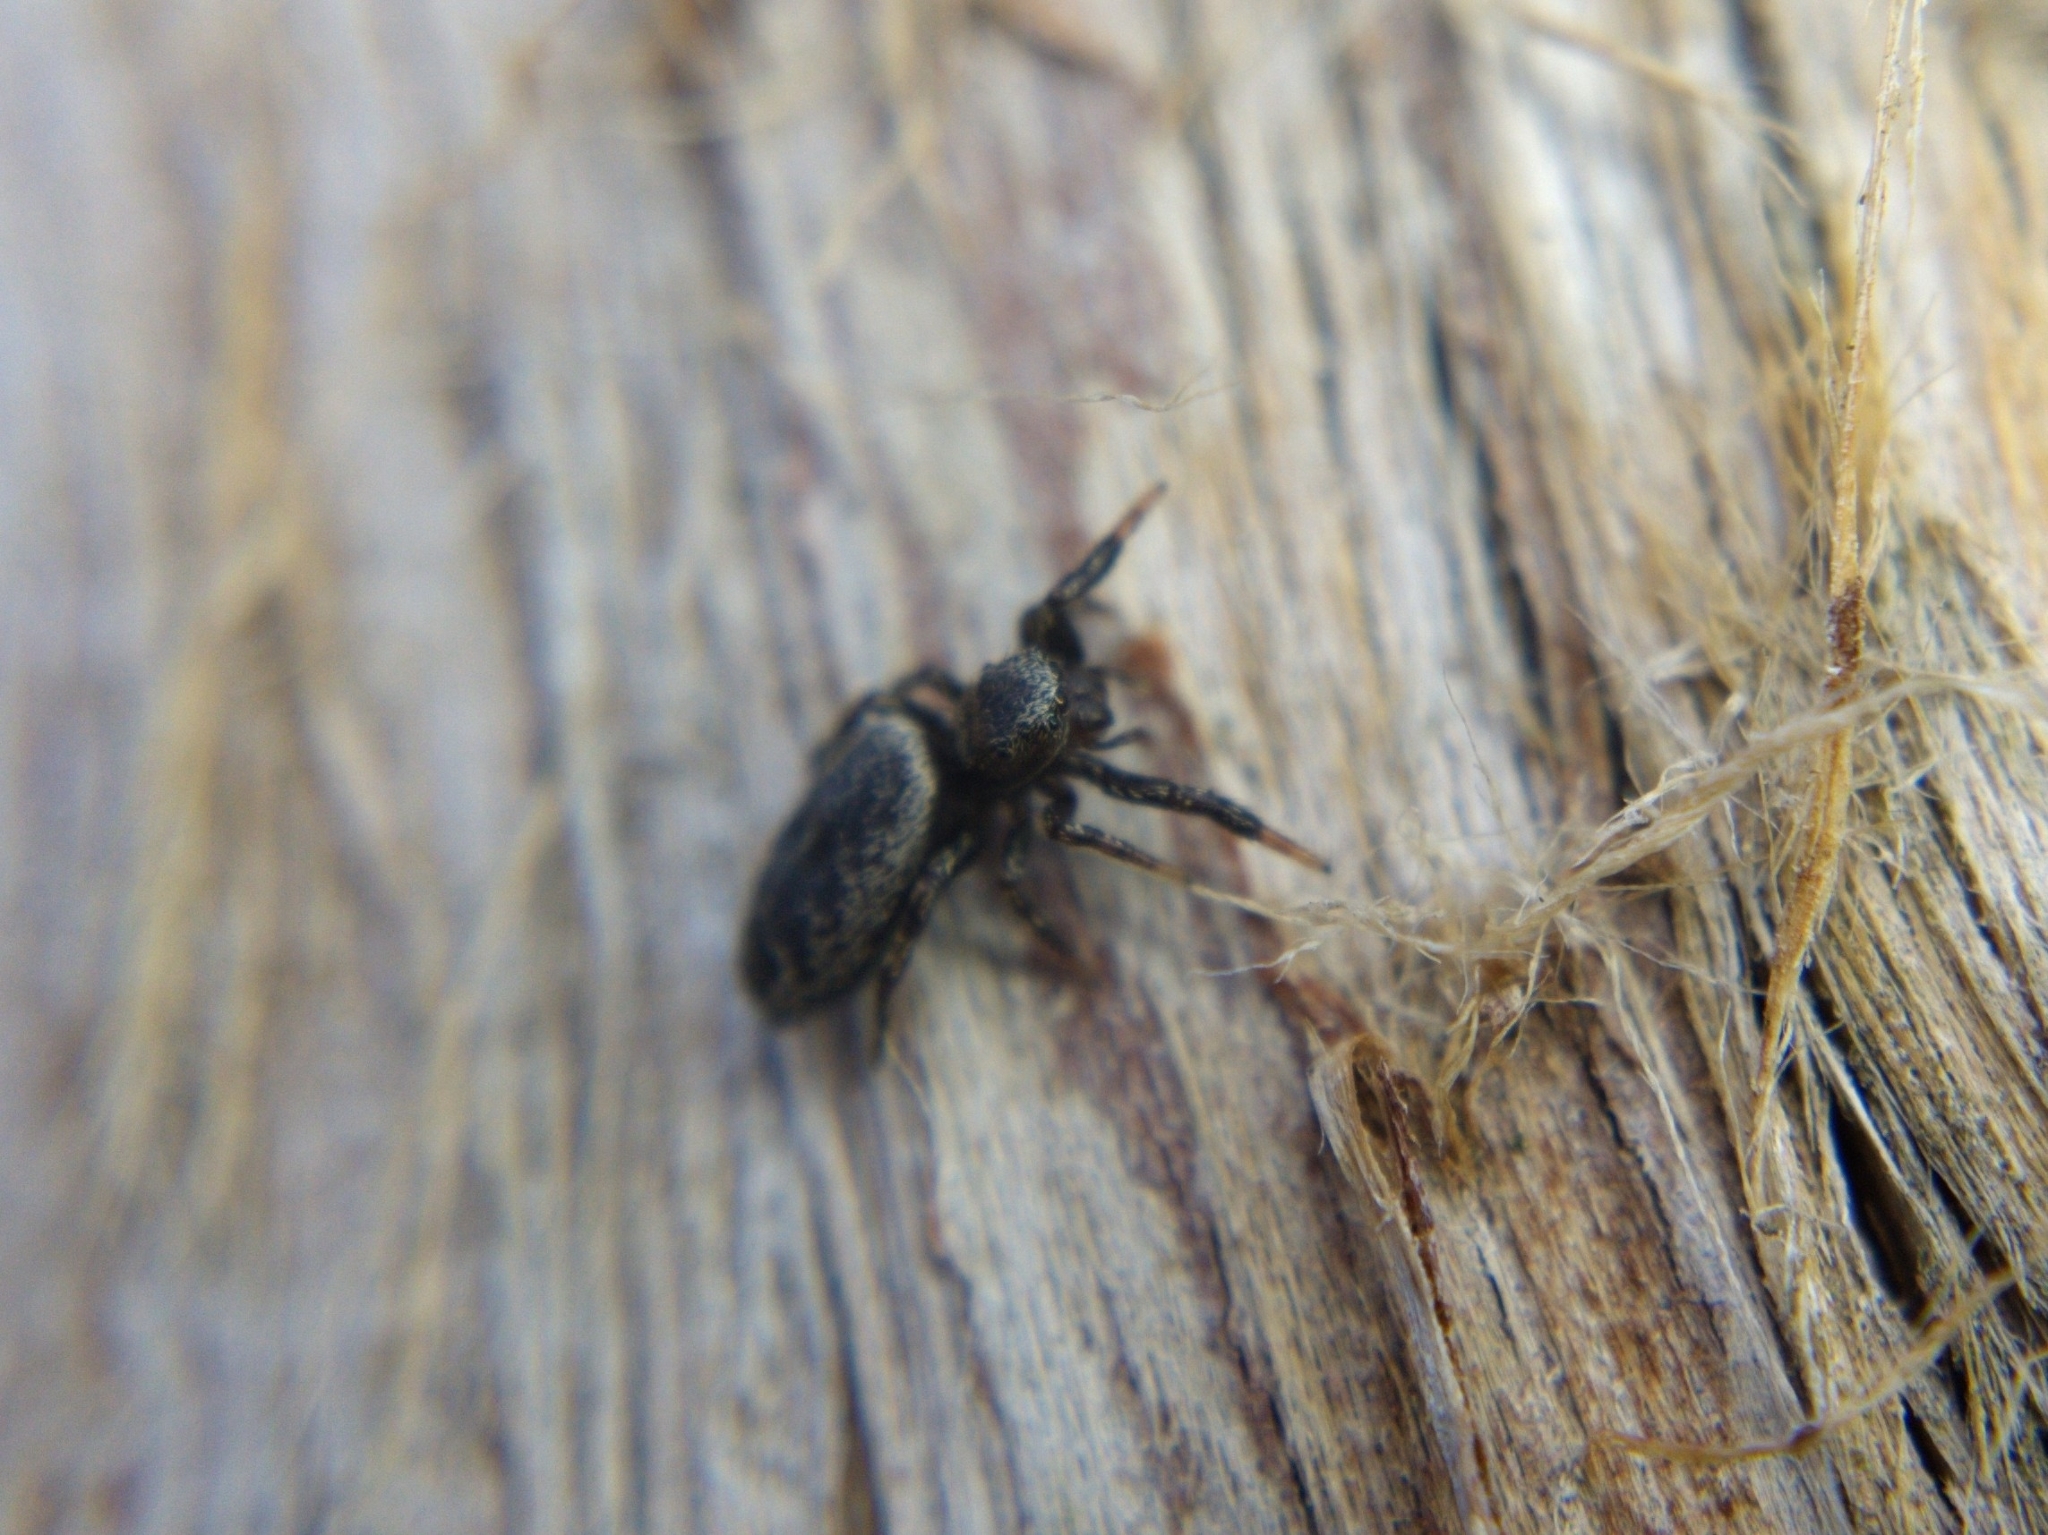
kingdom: Animalia
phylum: Arthropoda
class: Arachnida
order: Araneae
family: Salticidae
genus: Tutelina
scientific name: Tutelina harti
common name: Hart's jumping spider
